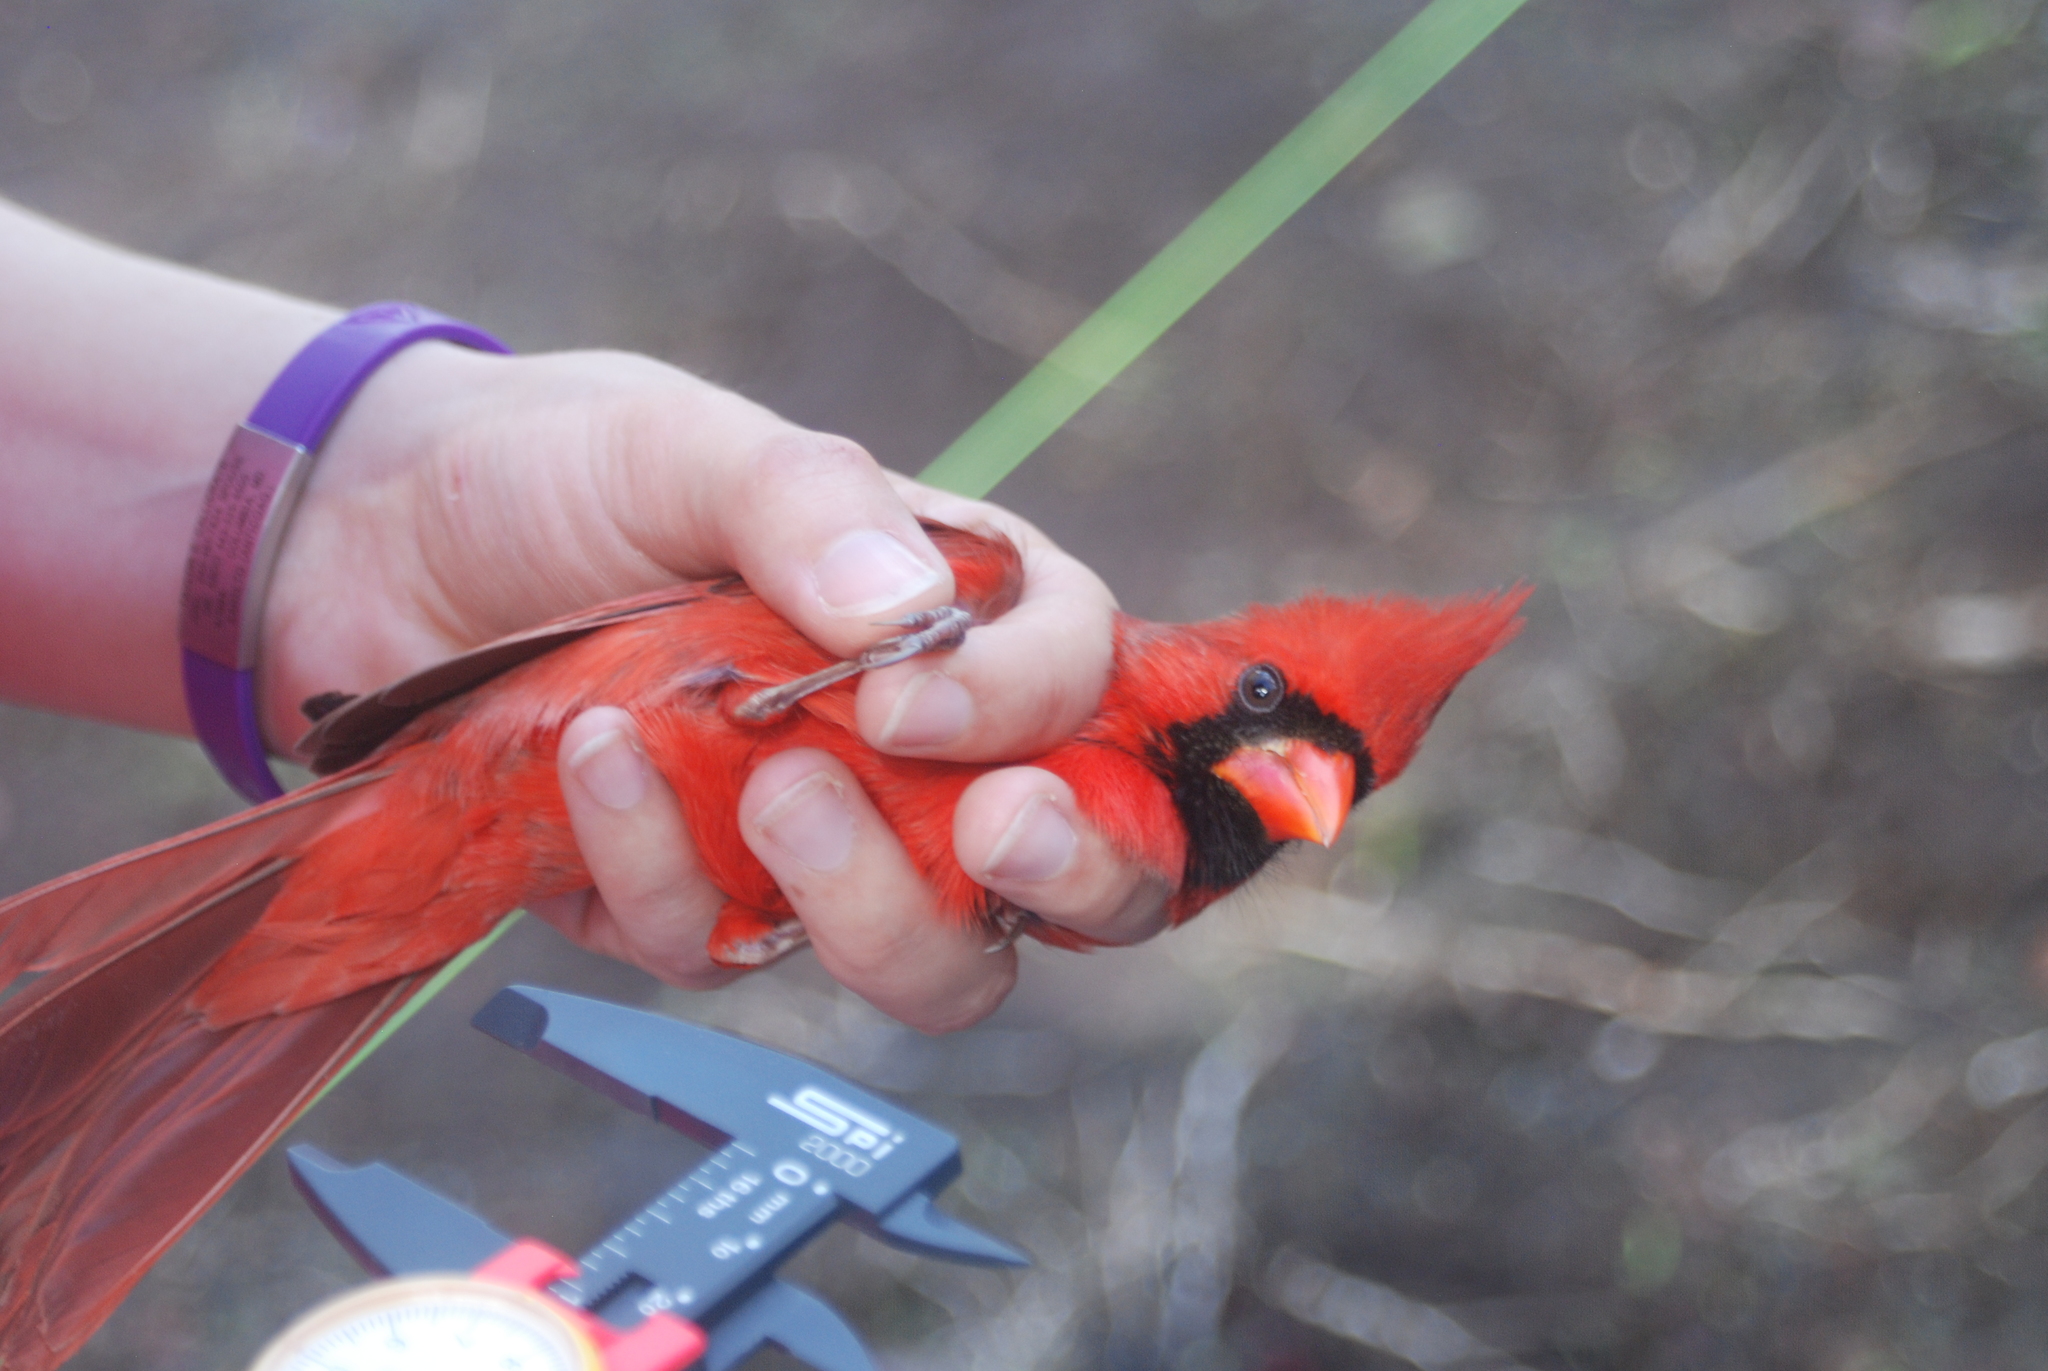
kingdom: Animalia
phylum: Chordata
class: Aves
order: Passeriformes
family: Cardinalidae
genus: Cardinalis
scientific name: Cardinalis cardinalis
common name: Northern cardinal
